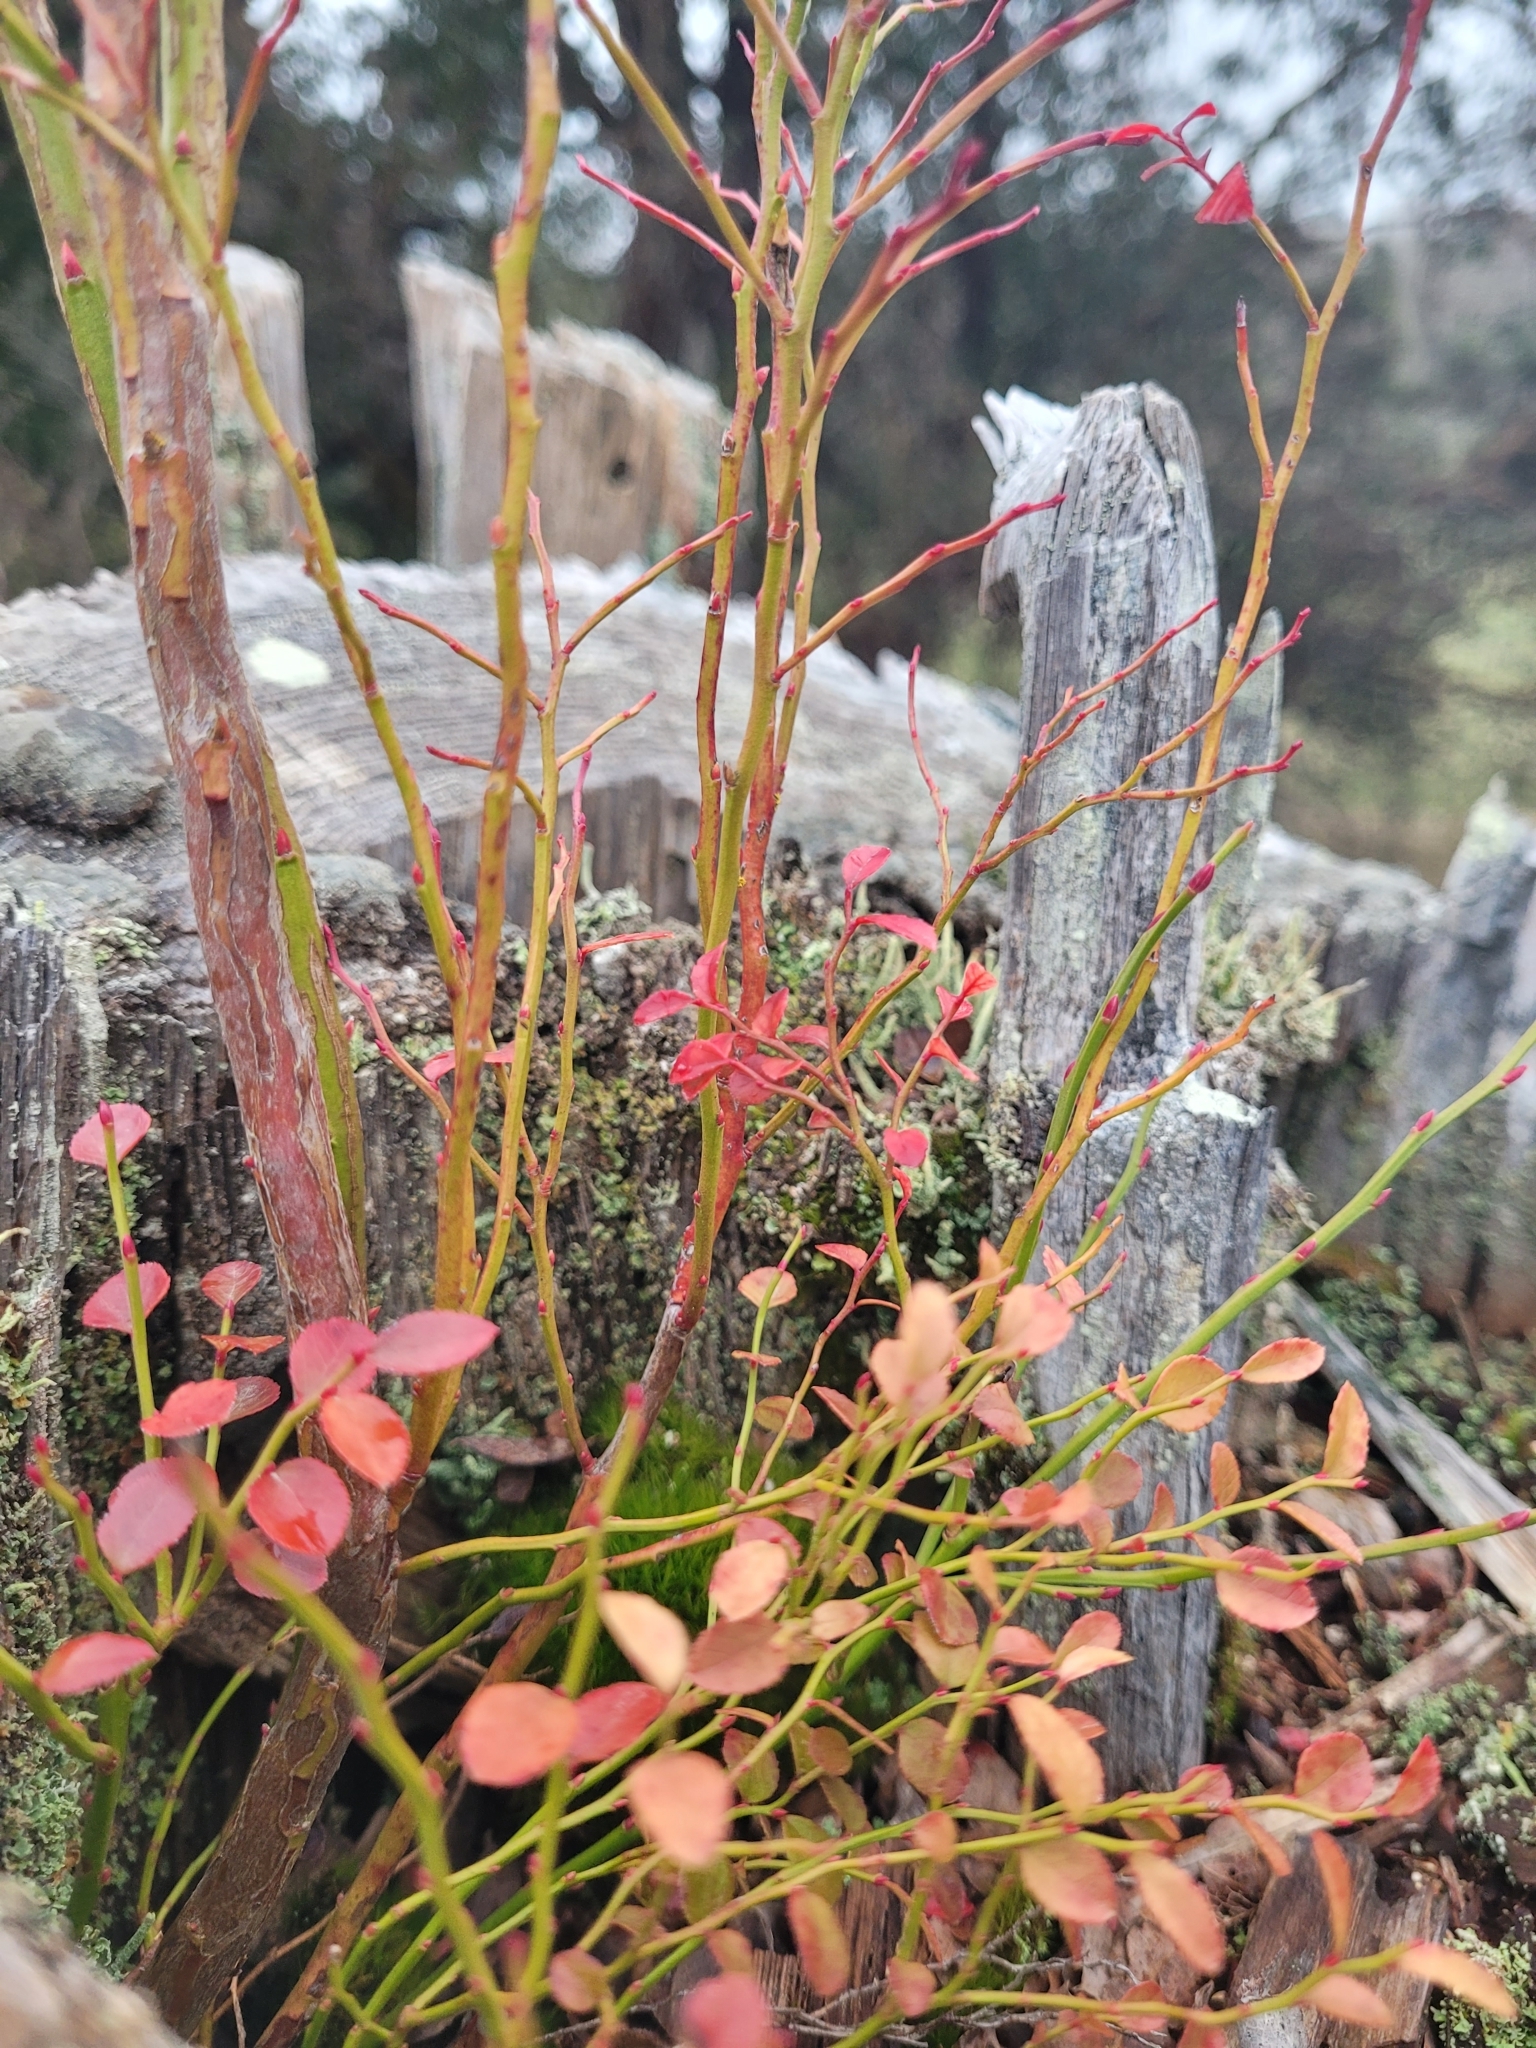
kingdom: Plantae
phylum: Tracheophyta
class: Magnoliopsida
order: Ericales
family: Ericaceae
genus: Vaccinium
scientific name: Vaccinium parvifolium
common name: Red-huckleberry
